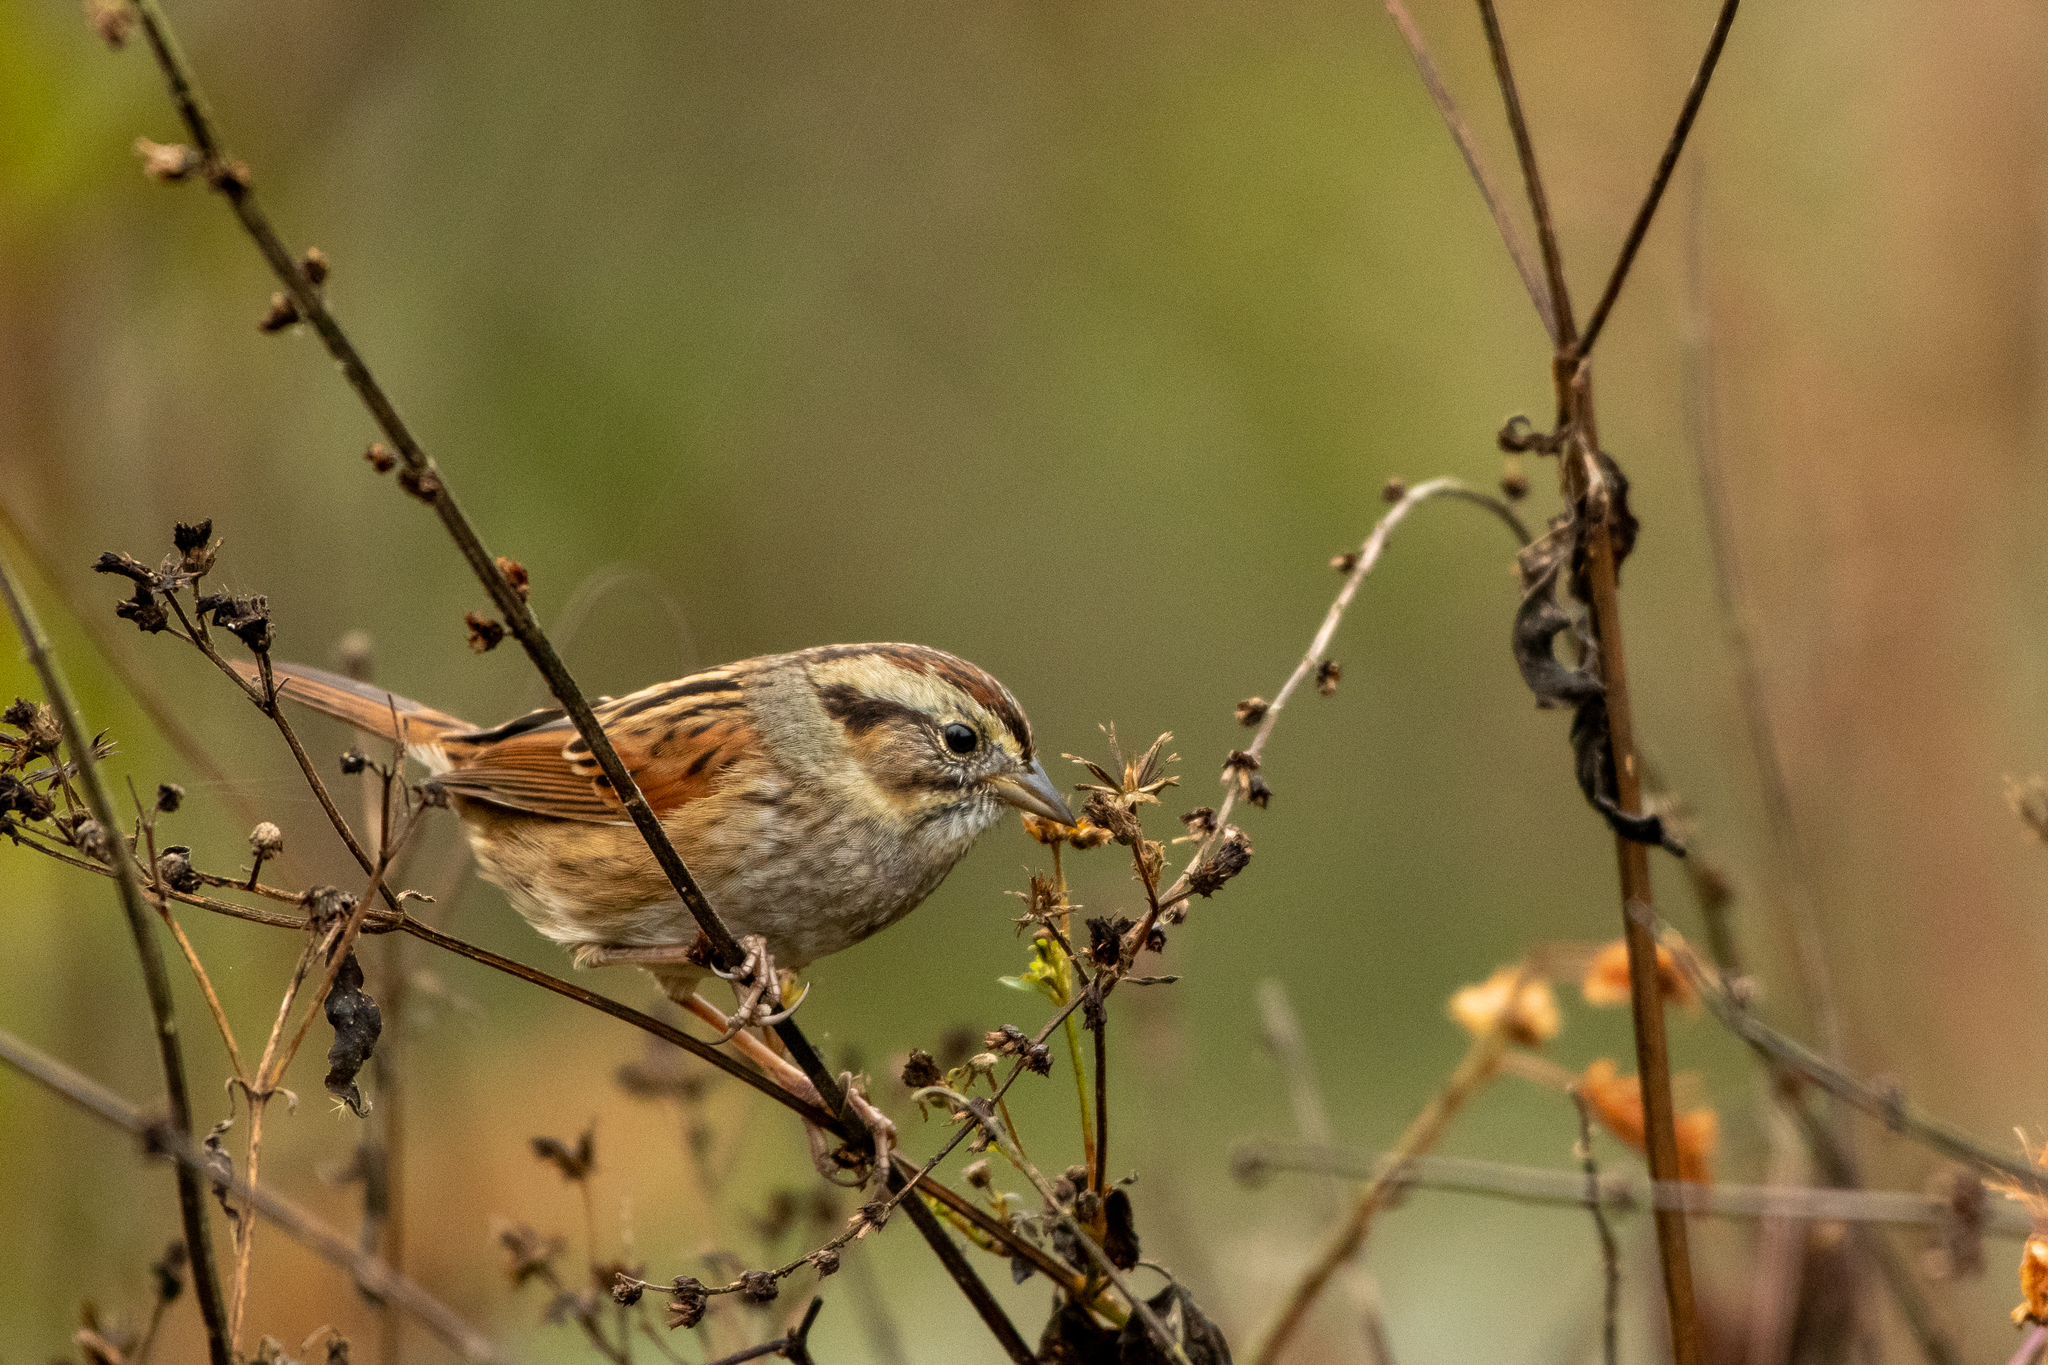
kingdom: Animalia
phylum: Chordata
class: Aves
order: Passeriformes
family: Passerellidae
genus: Melospiza
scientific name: Melospiza georgiana
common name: Swamp sparrow
